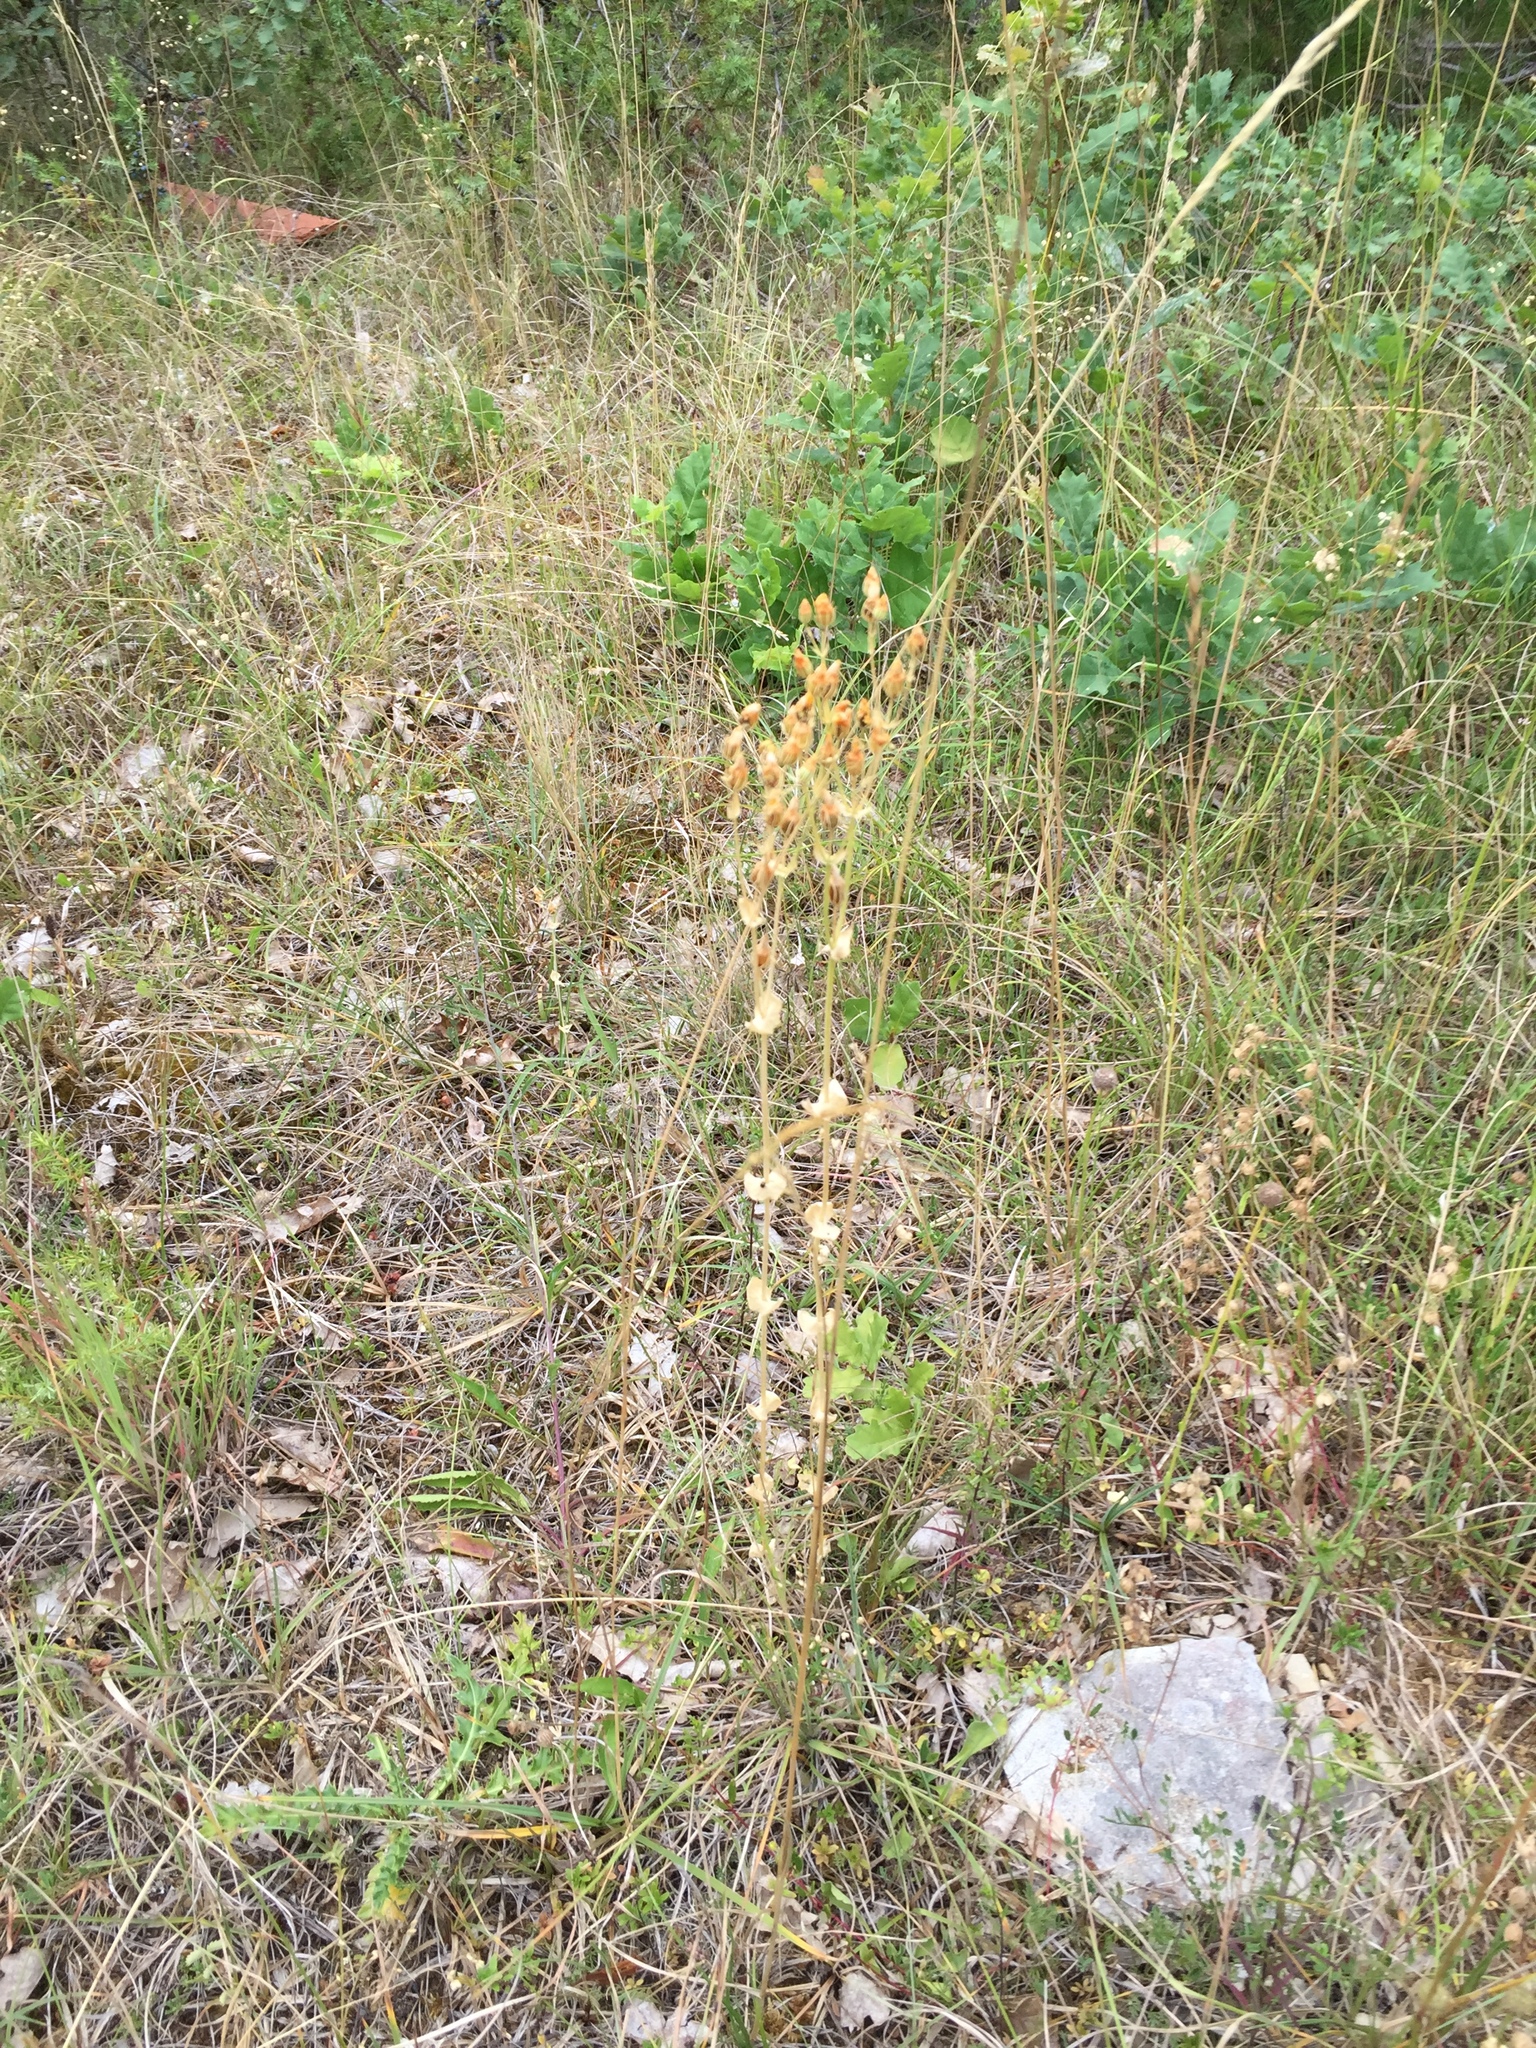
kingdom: Plantae
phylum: Tracheophyta
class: Magnoliopsida
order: Gentianales
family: Gentianaceae
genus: Blackstonia
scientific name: Blackstonia perfoliata
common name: Yellow-wort
